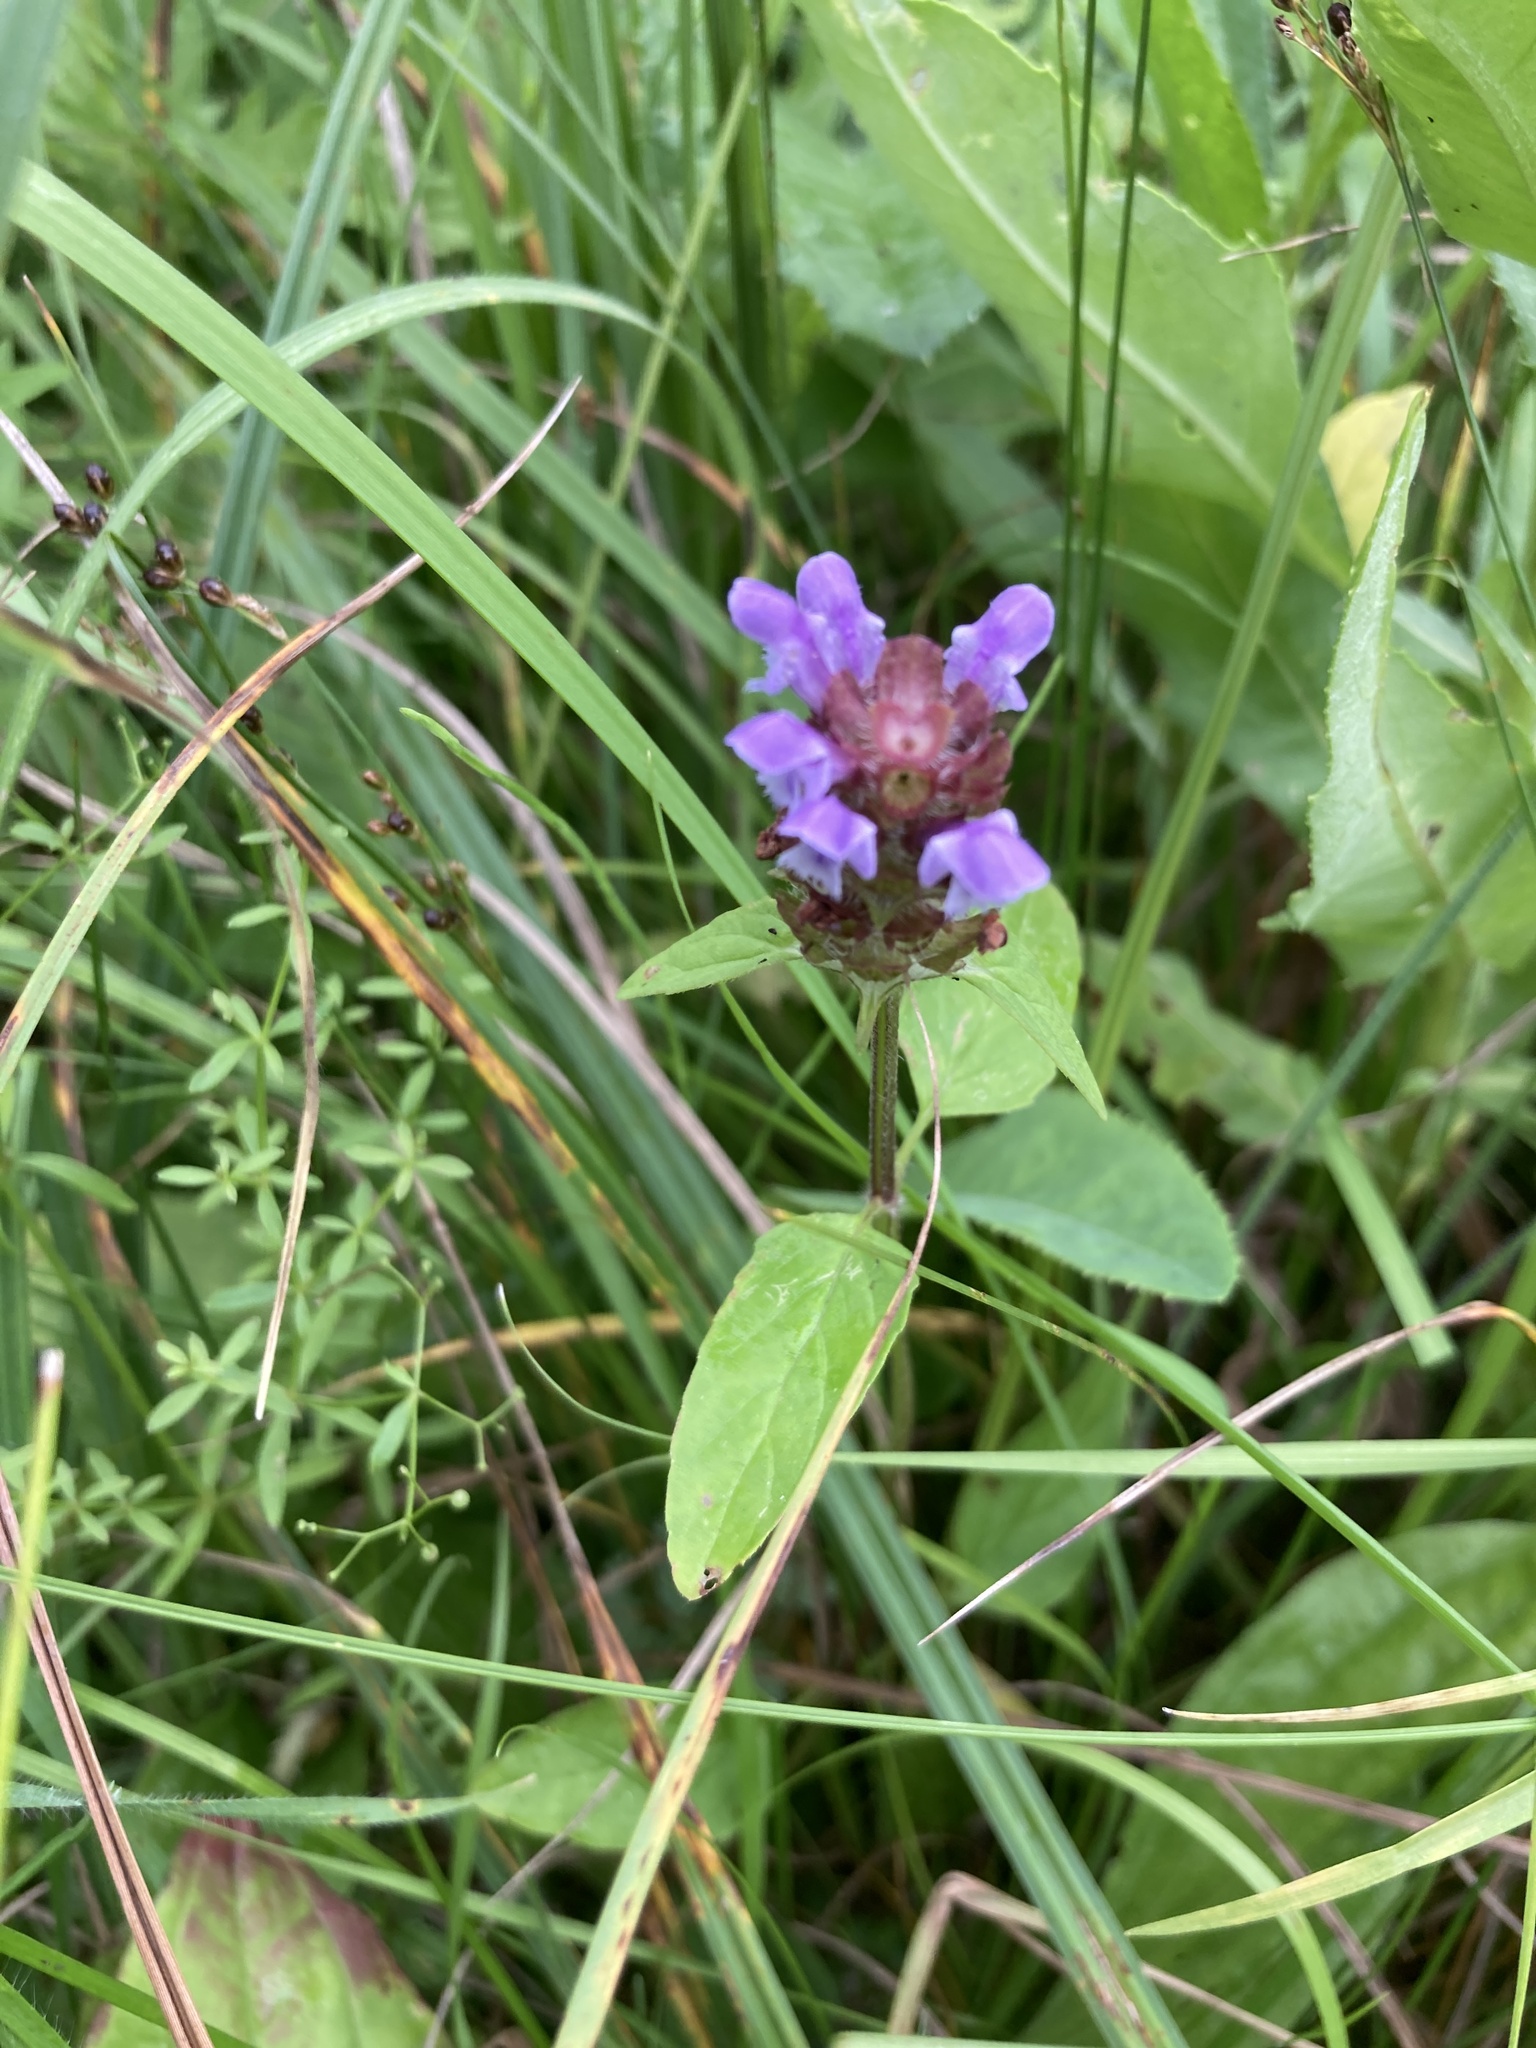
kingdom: Plantae
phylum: Tracheophyta
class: Magnoliopsida
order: Lamiales
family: Lamiaceae
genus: Prunella
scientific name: Prunella vulgaris
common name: Heal-all
